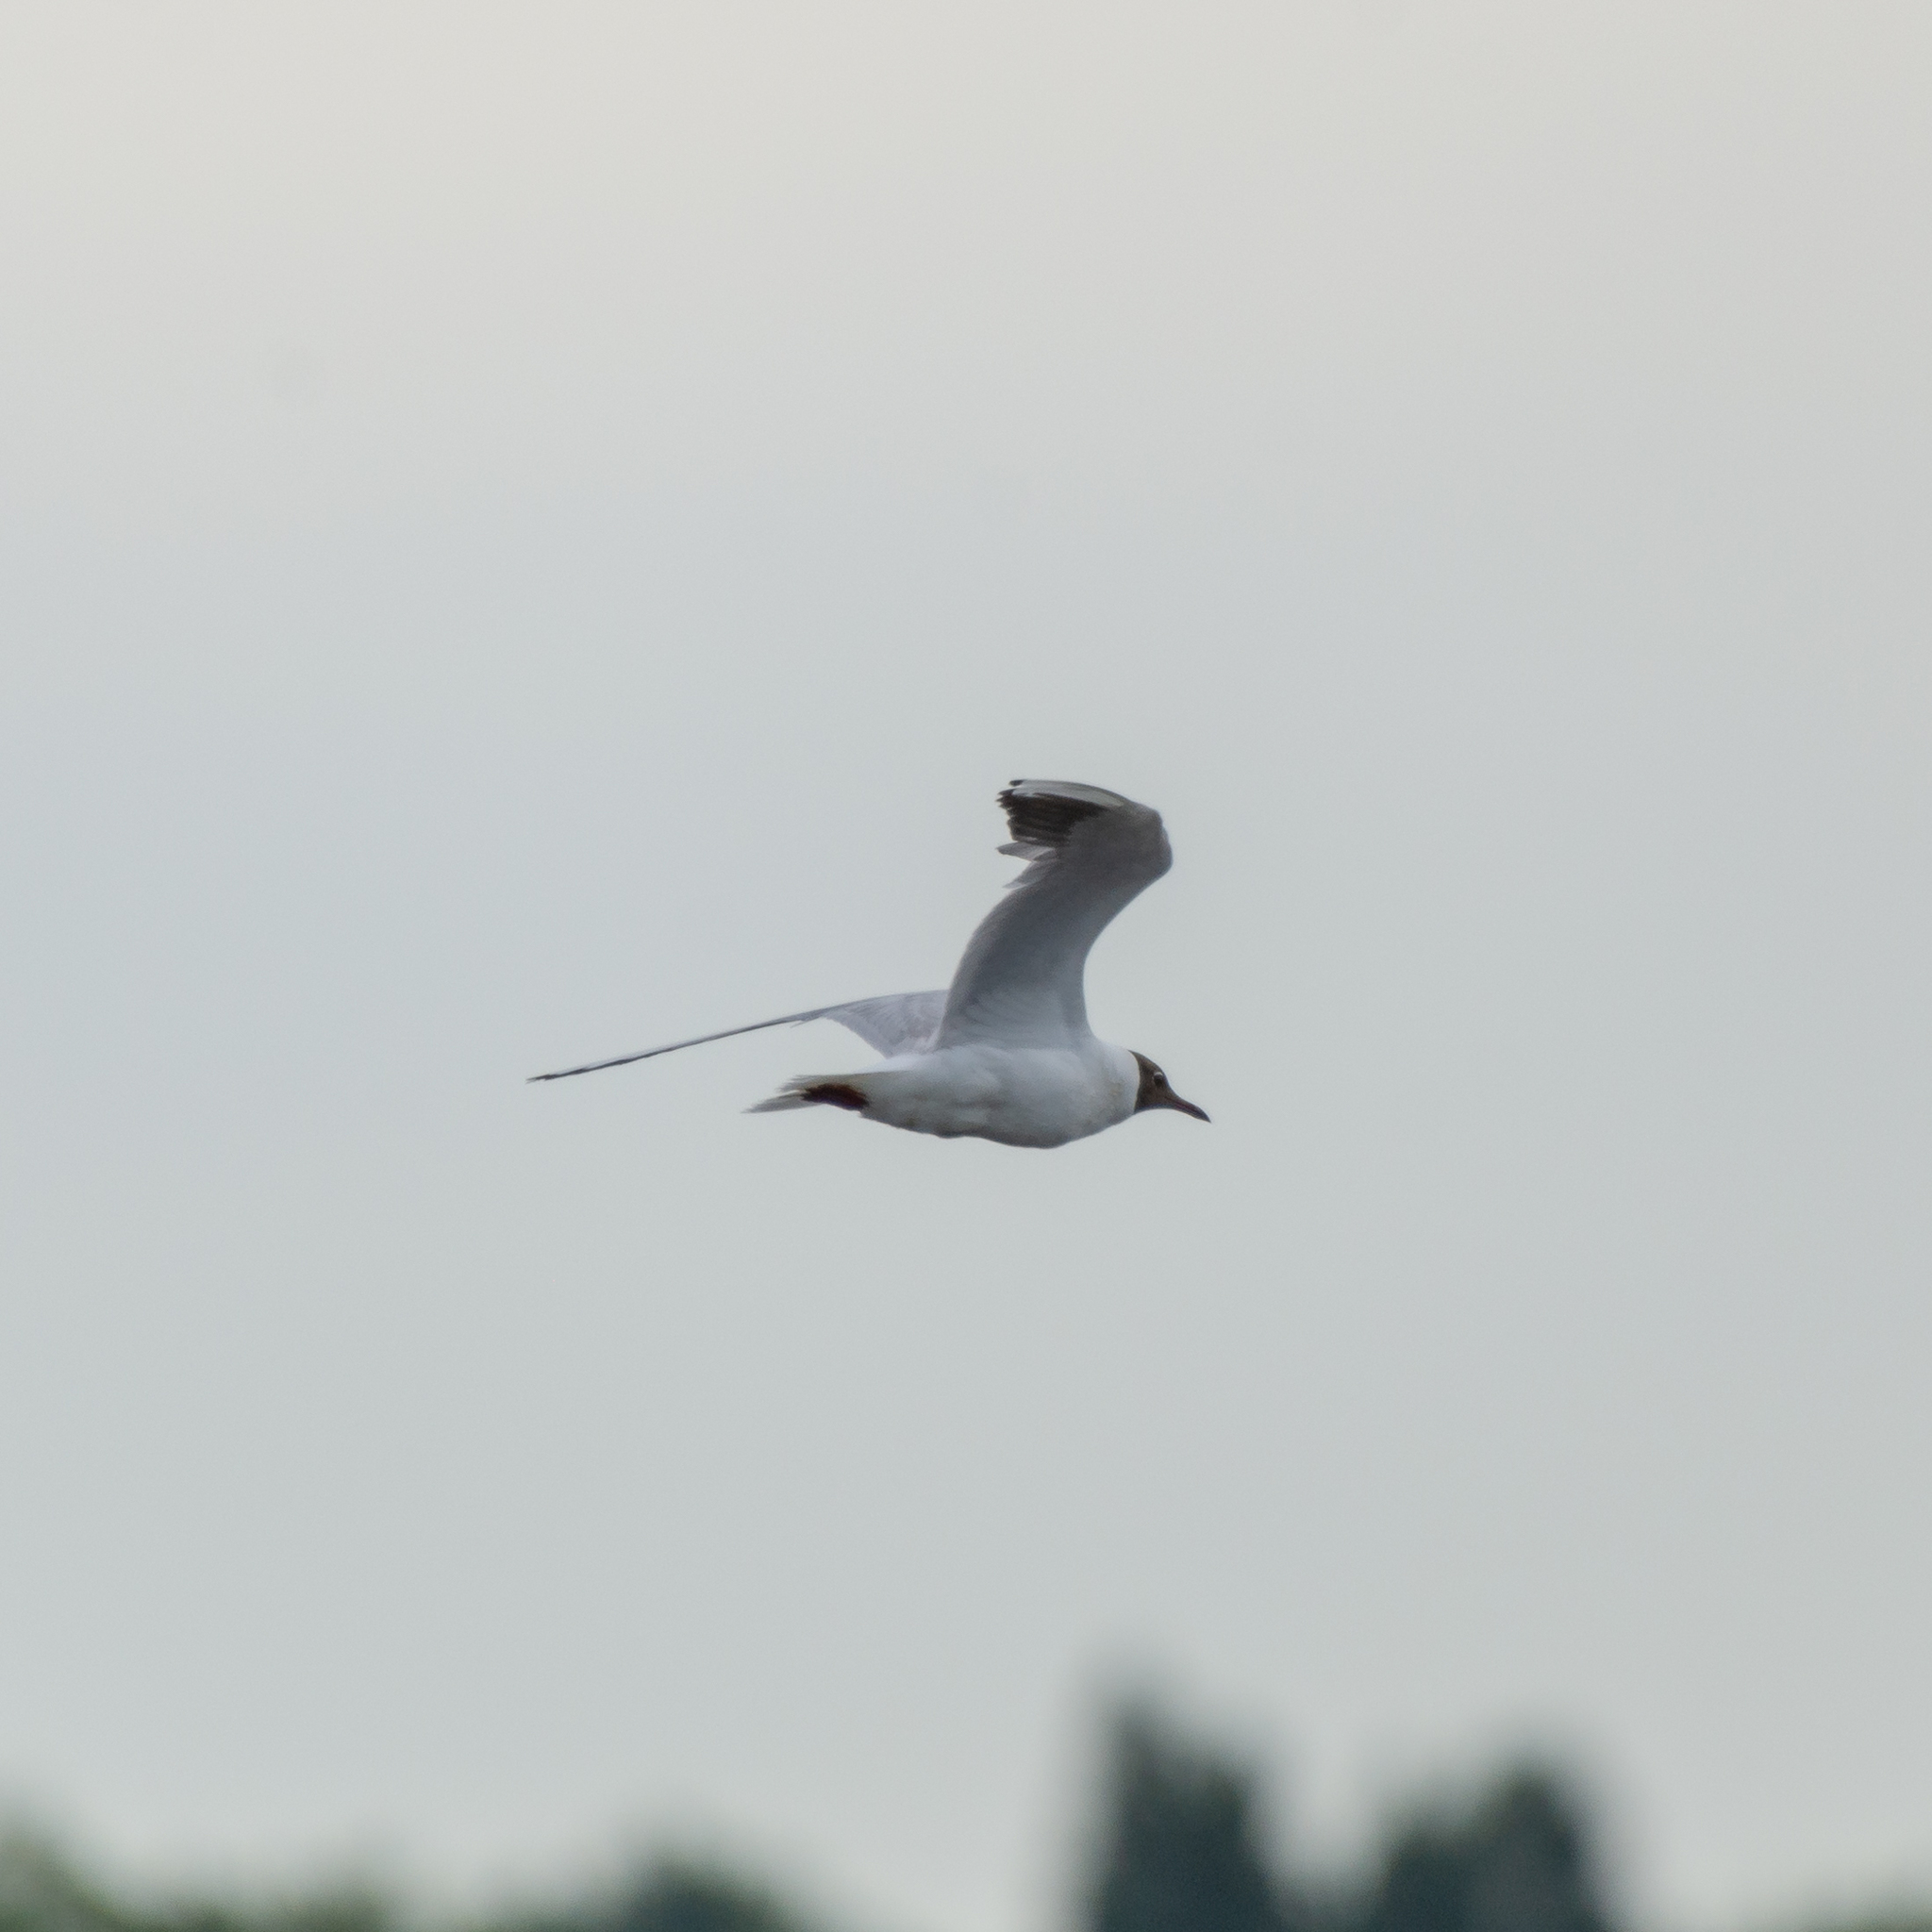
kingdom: Animalia
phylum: Chordata
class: Aves
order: Charadriiformes
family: Laridae
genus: Chroicocephalus
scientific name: Chroicocephalus ridibundus
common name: Black-headed gull
